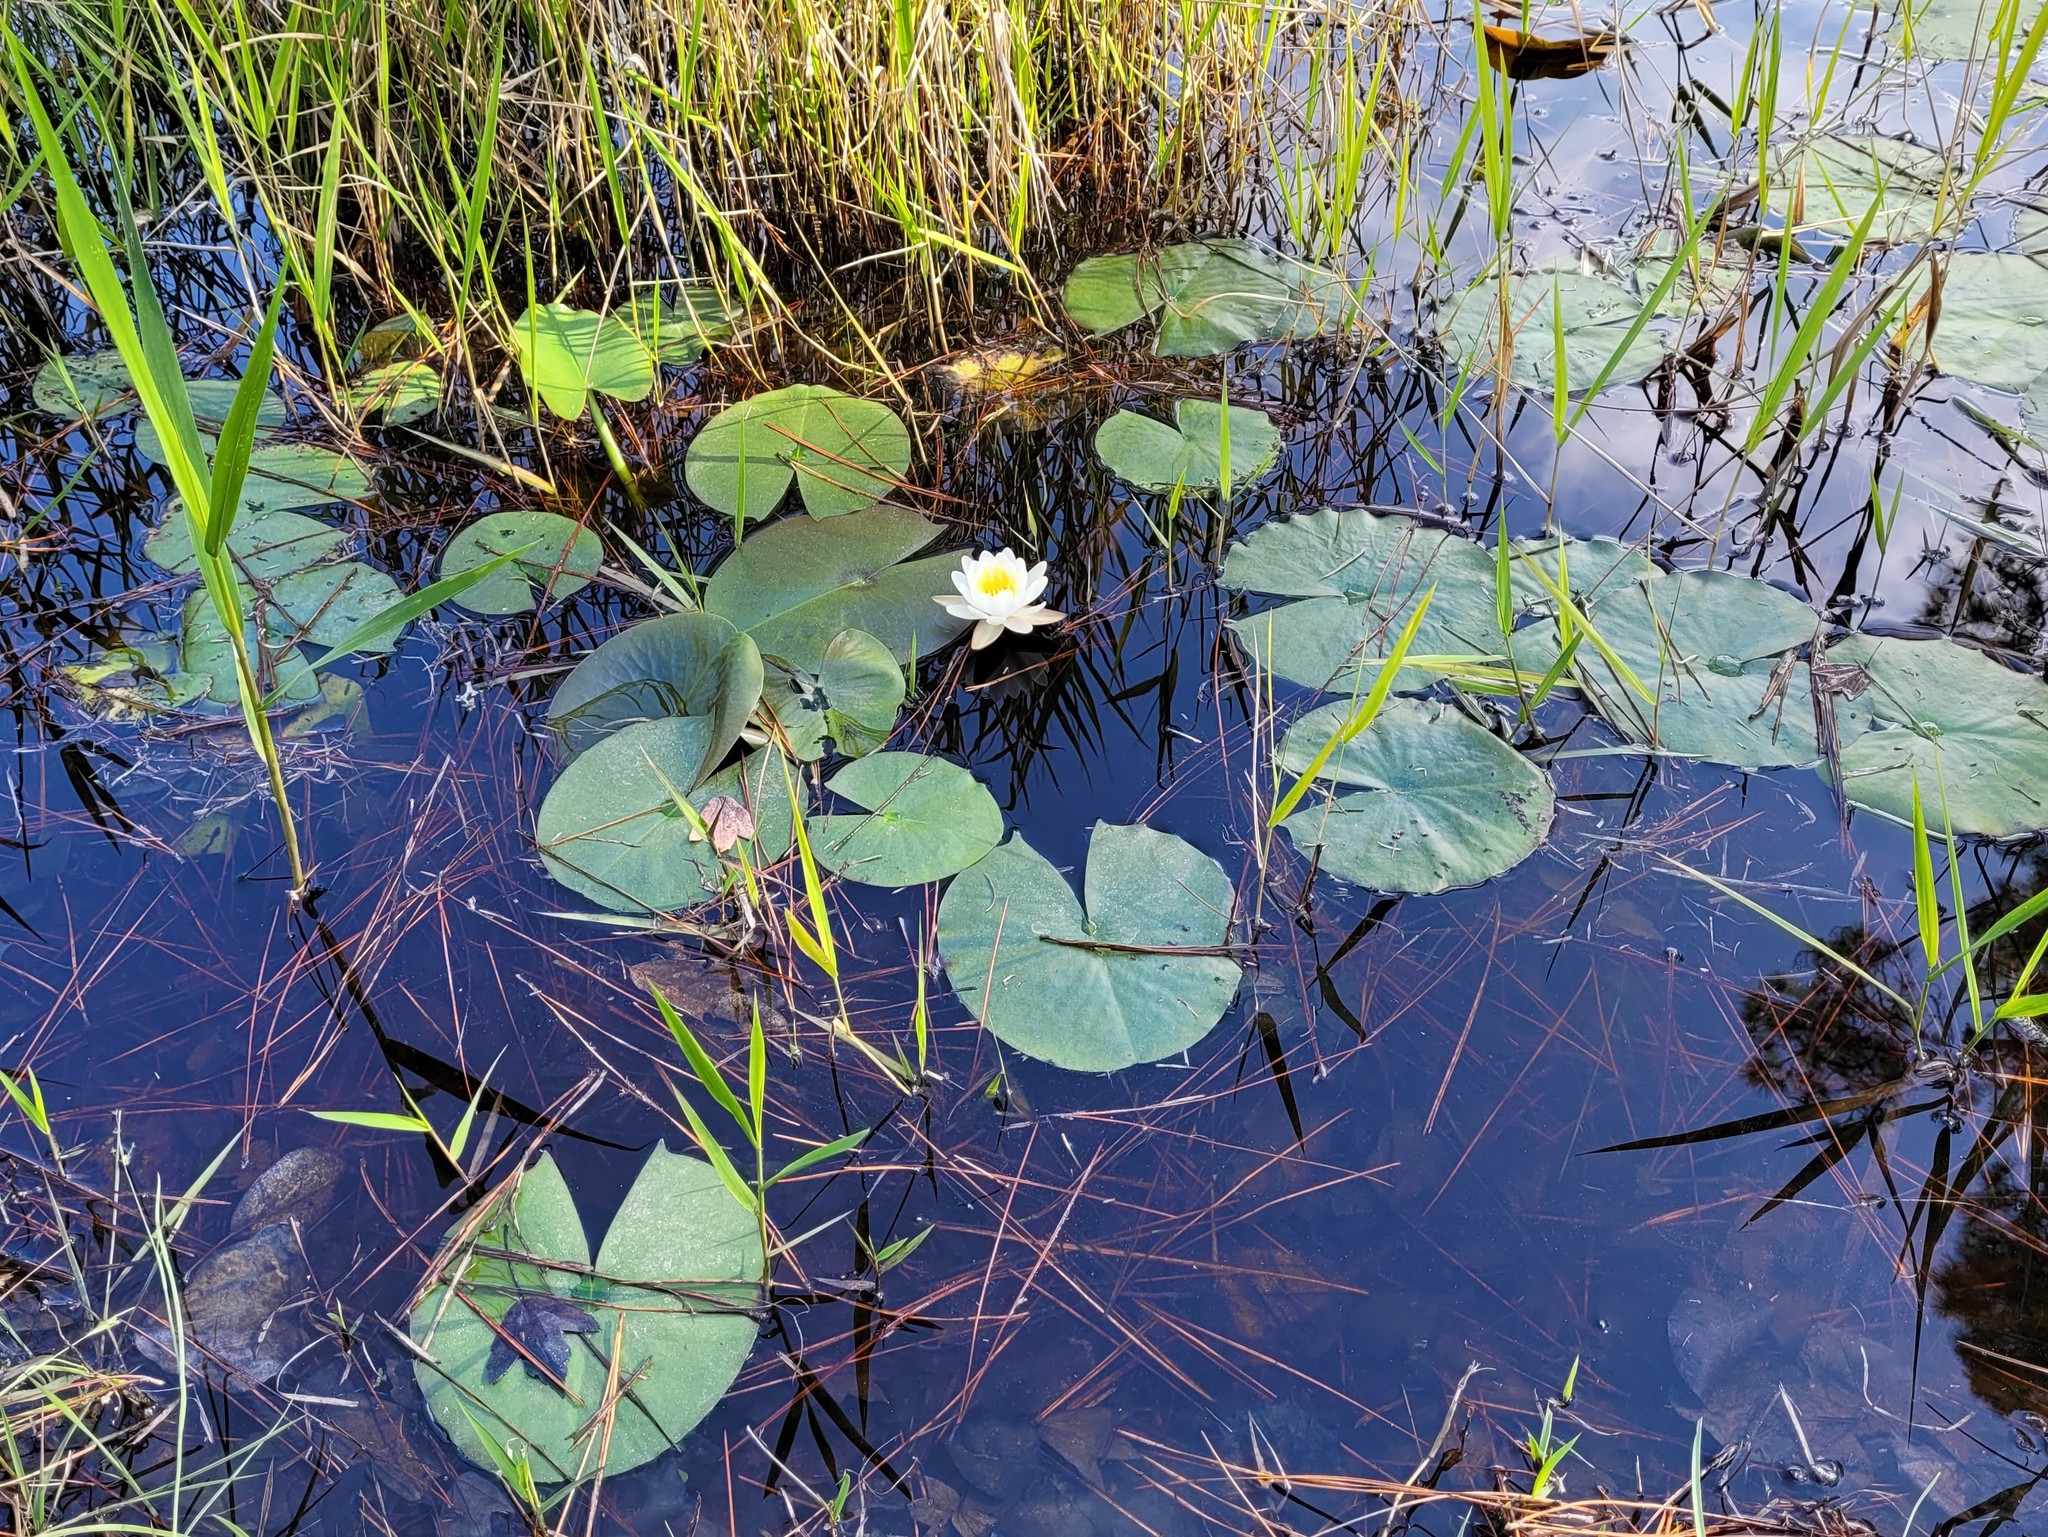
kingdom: Plantae
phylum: Tracheophyta
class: Magnoliopsida
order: Nymphaeales
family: Nymphaeaceae
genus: Nymphaea
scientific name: Nymphaea odorata
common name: Fragrant water-lily
